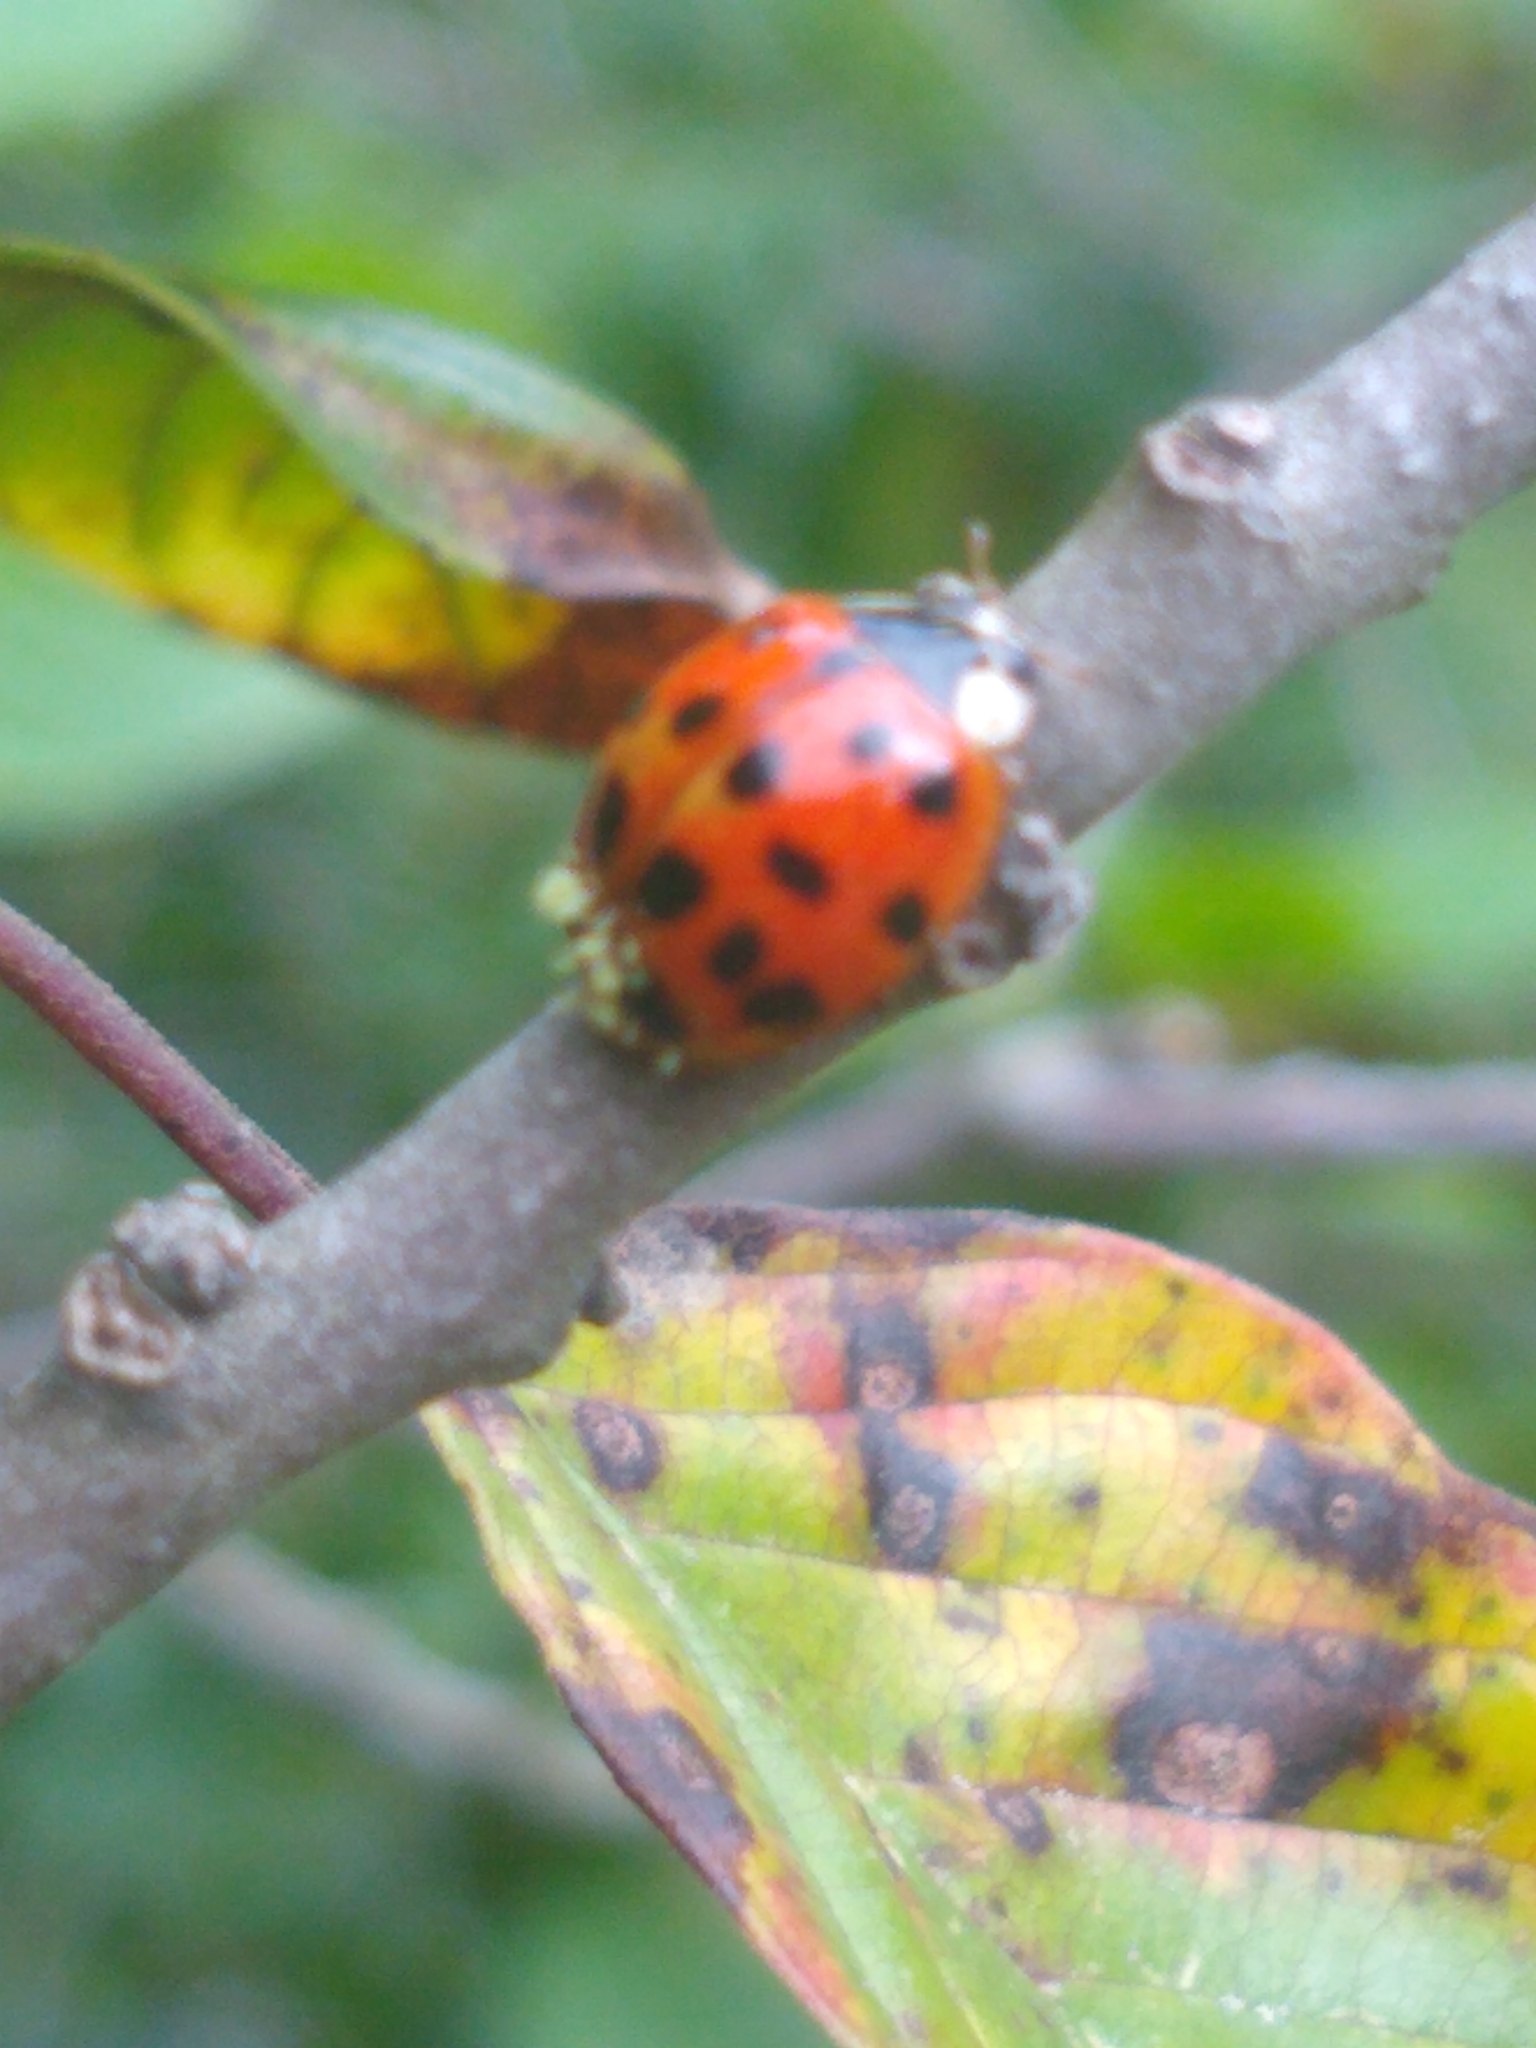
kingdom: Animalia
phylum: Arthropoda
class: Insecta
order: Coleoptera
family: Coccinellidae
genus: Harmonia
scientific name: Harmonia axyridis
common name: Harlequin ladybird
